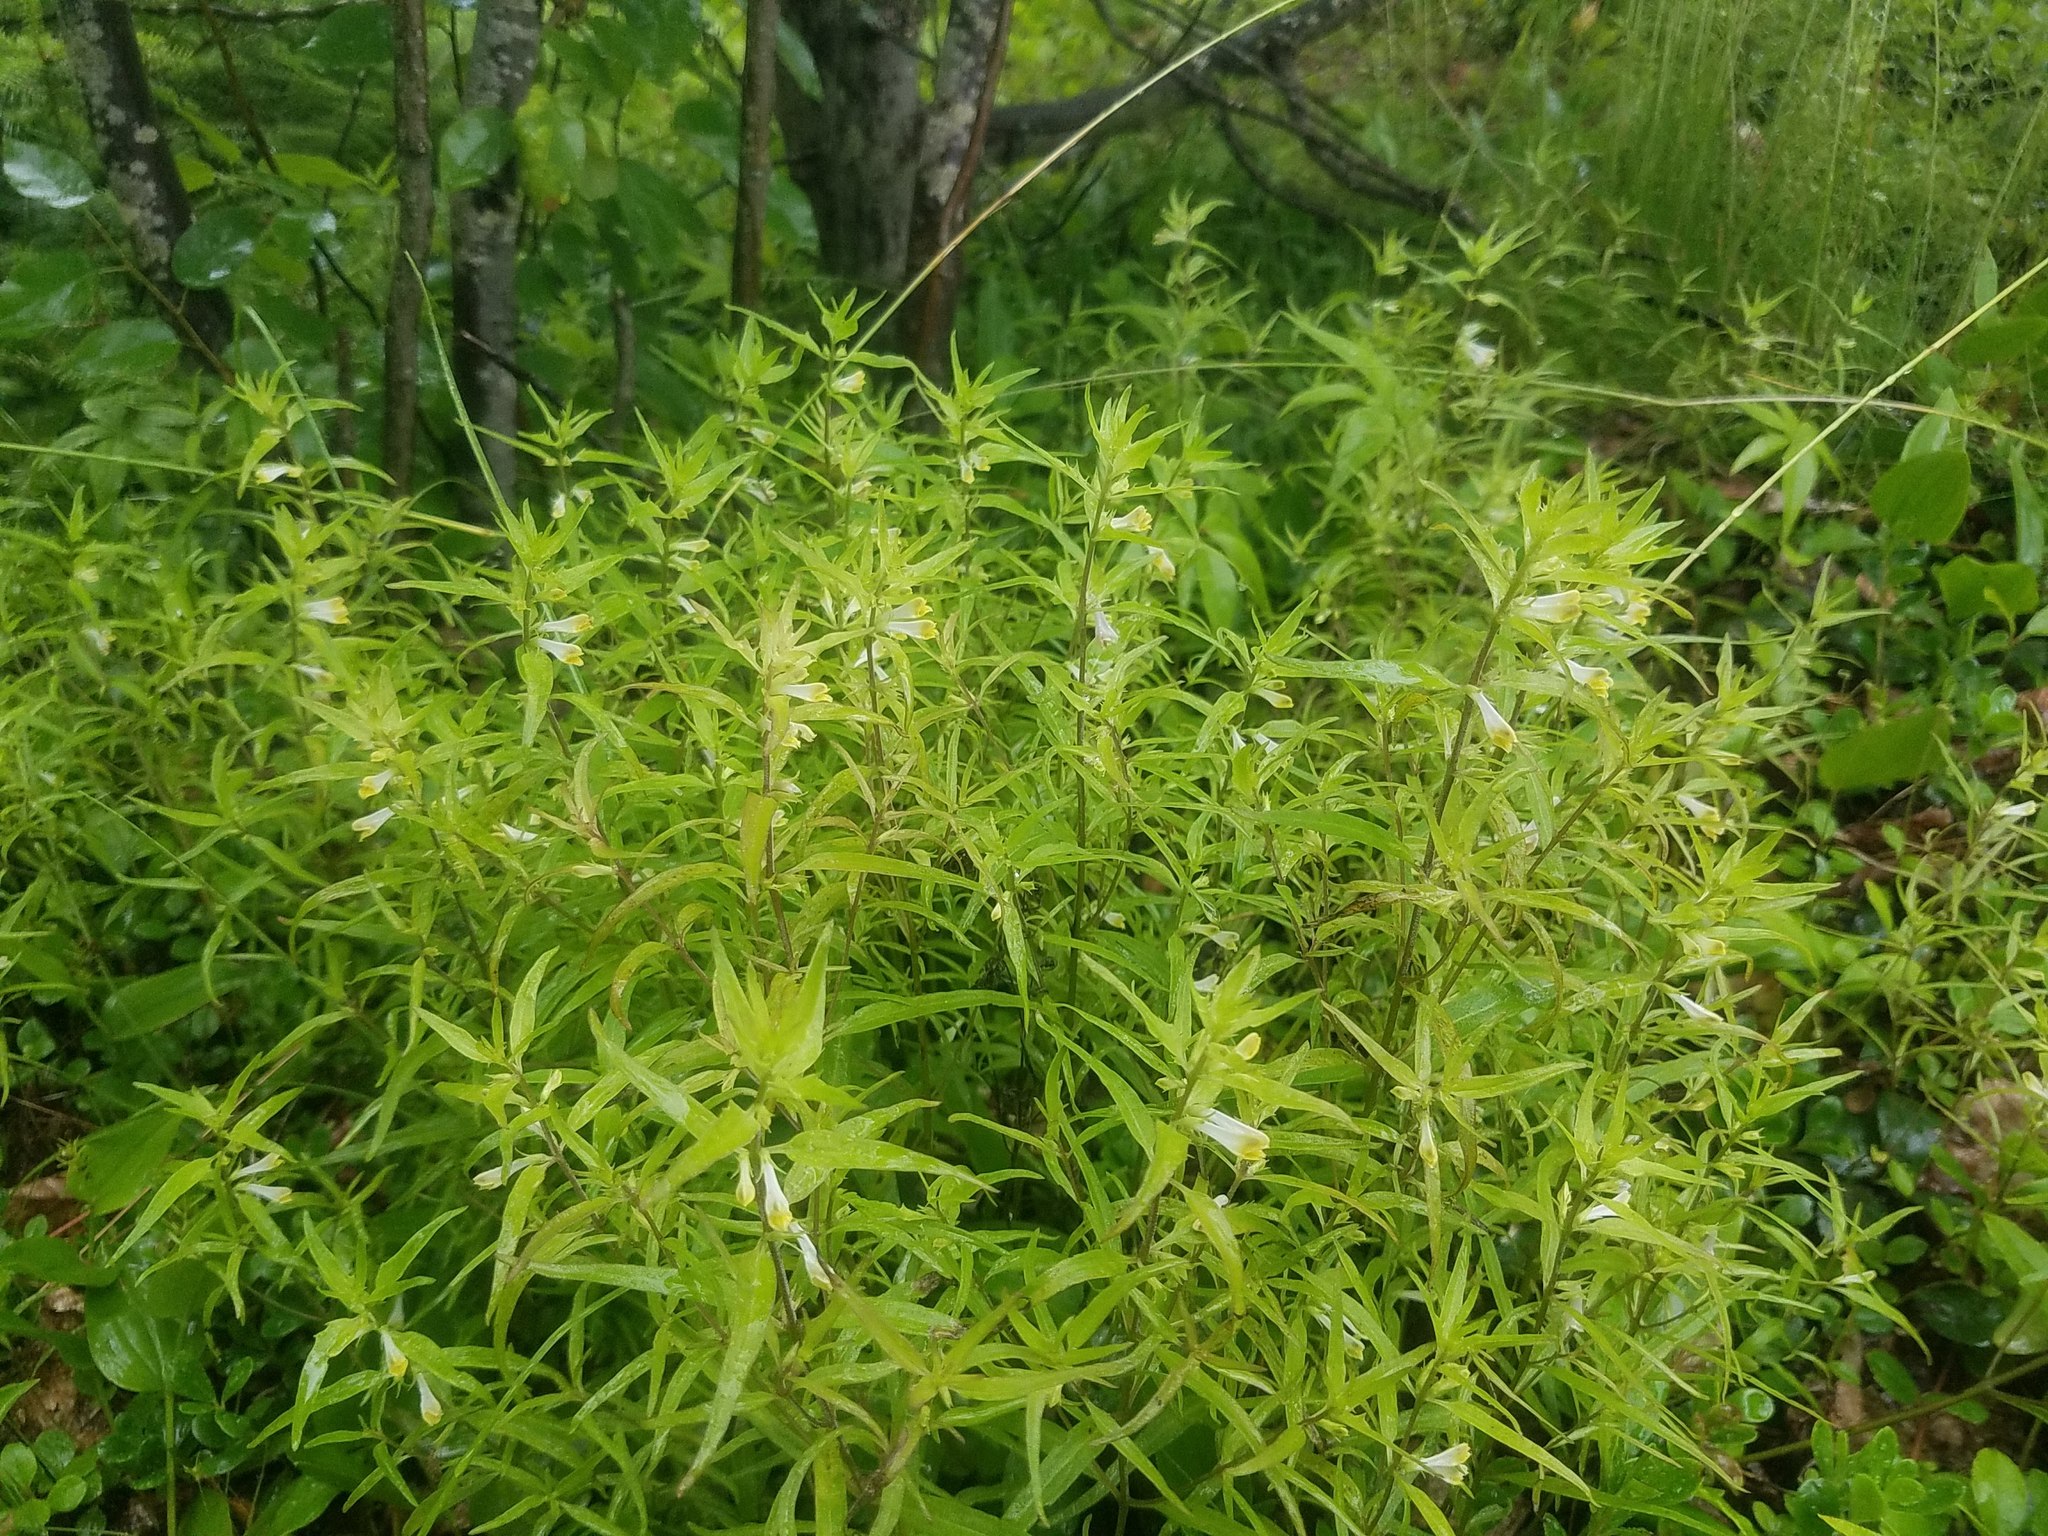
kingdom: Plantae
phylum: Tracheophyta
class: Magnoliopsida
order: Lamiales
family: Orobanchaceae
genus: Melampyrum
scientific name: Melampyrum lineare
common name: American cow-wheat
